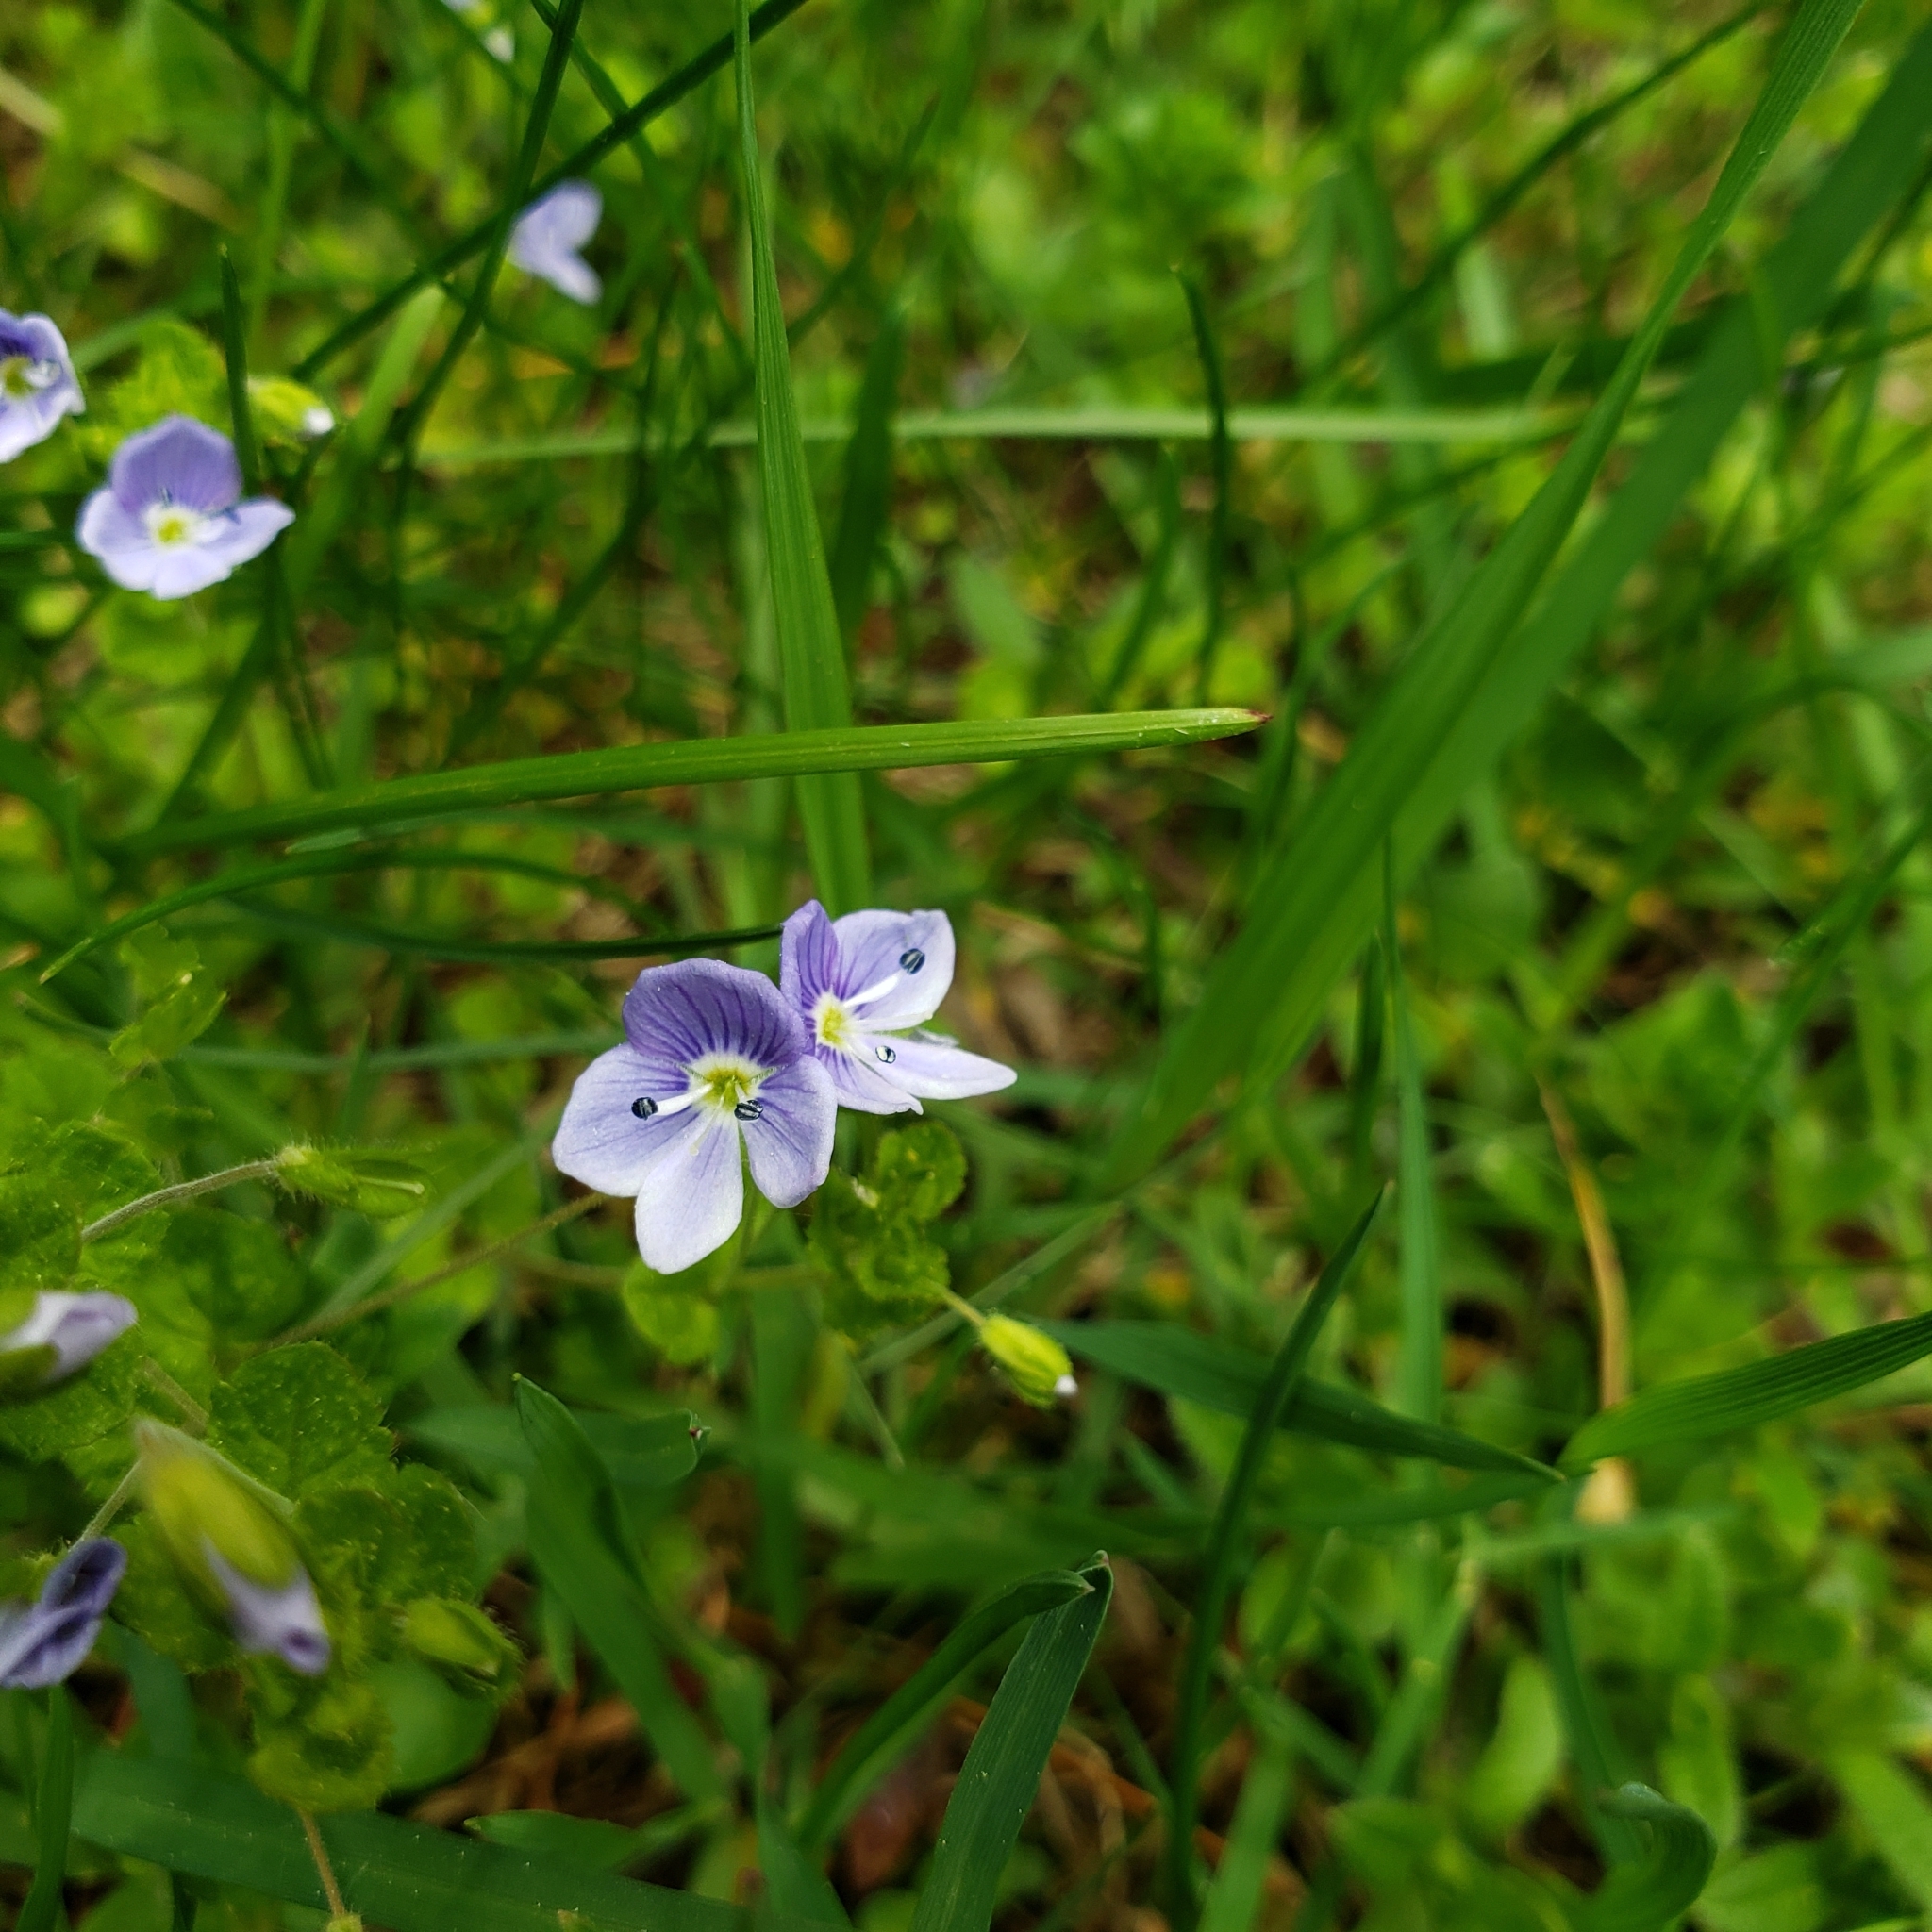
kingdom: Plantae
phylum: Tracheophyta
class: Magnoliopsida
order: Lamiales
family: Plantaginaceae
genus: Veronica
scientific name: Veronica filiformis
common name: Slender speedwell
